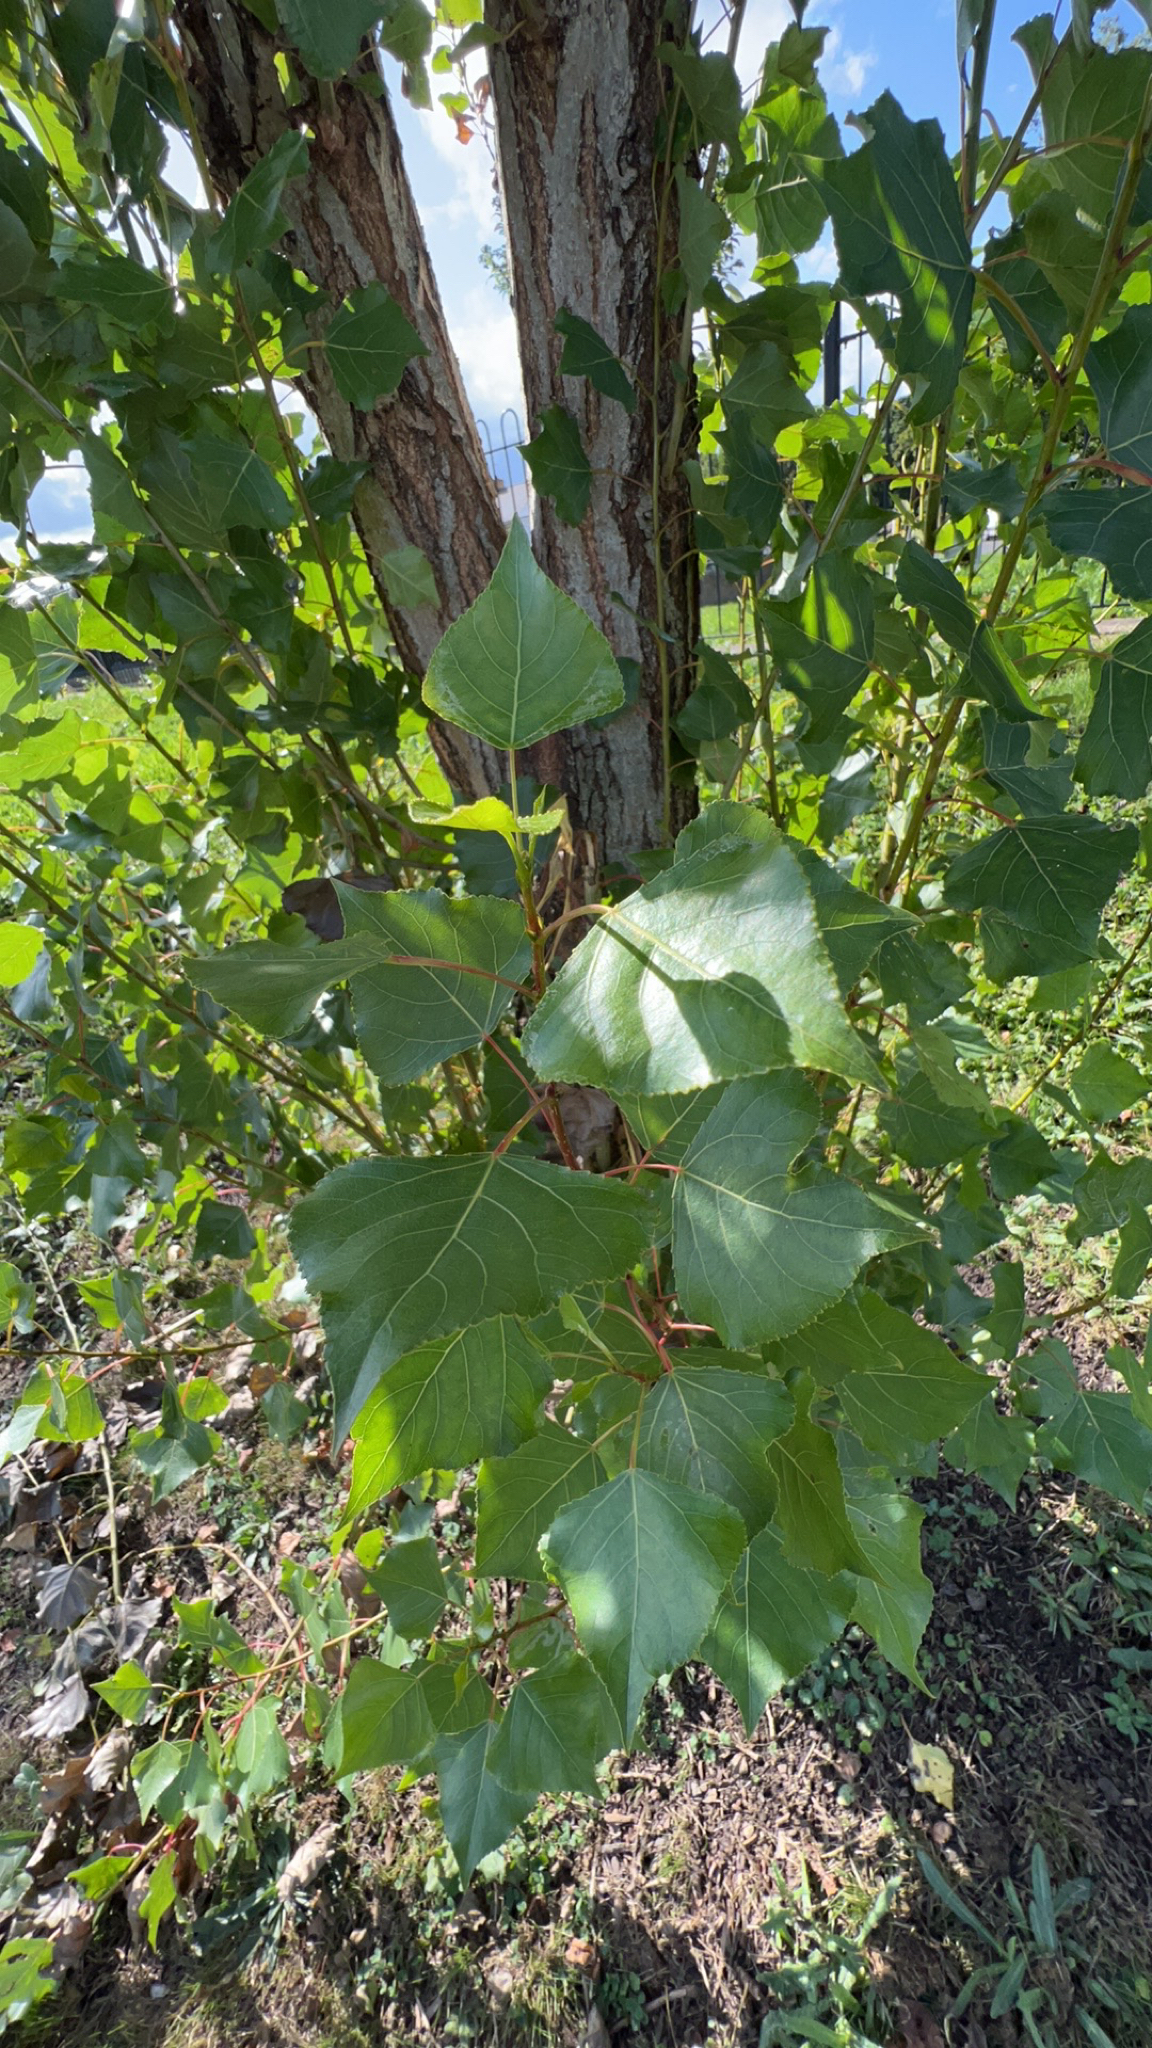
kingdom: Plantae
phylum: Tracheophyta
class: Magnoliopsida
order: Malpighiales
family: Salicaceae
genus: Populus
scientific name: Populus nigra
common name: Black poplar
